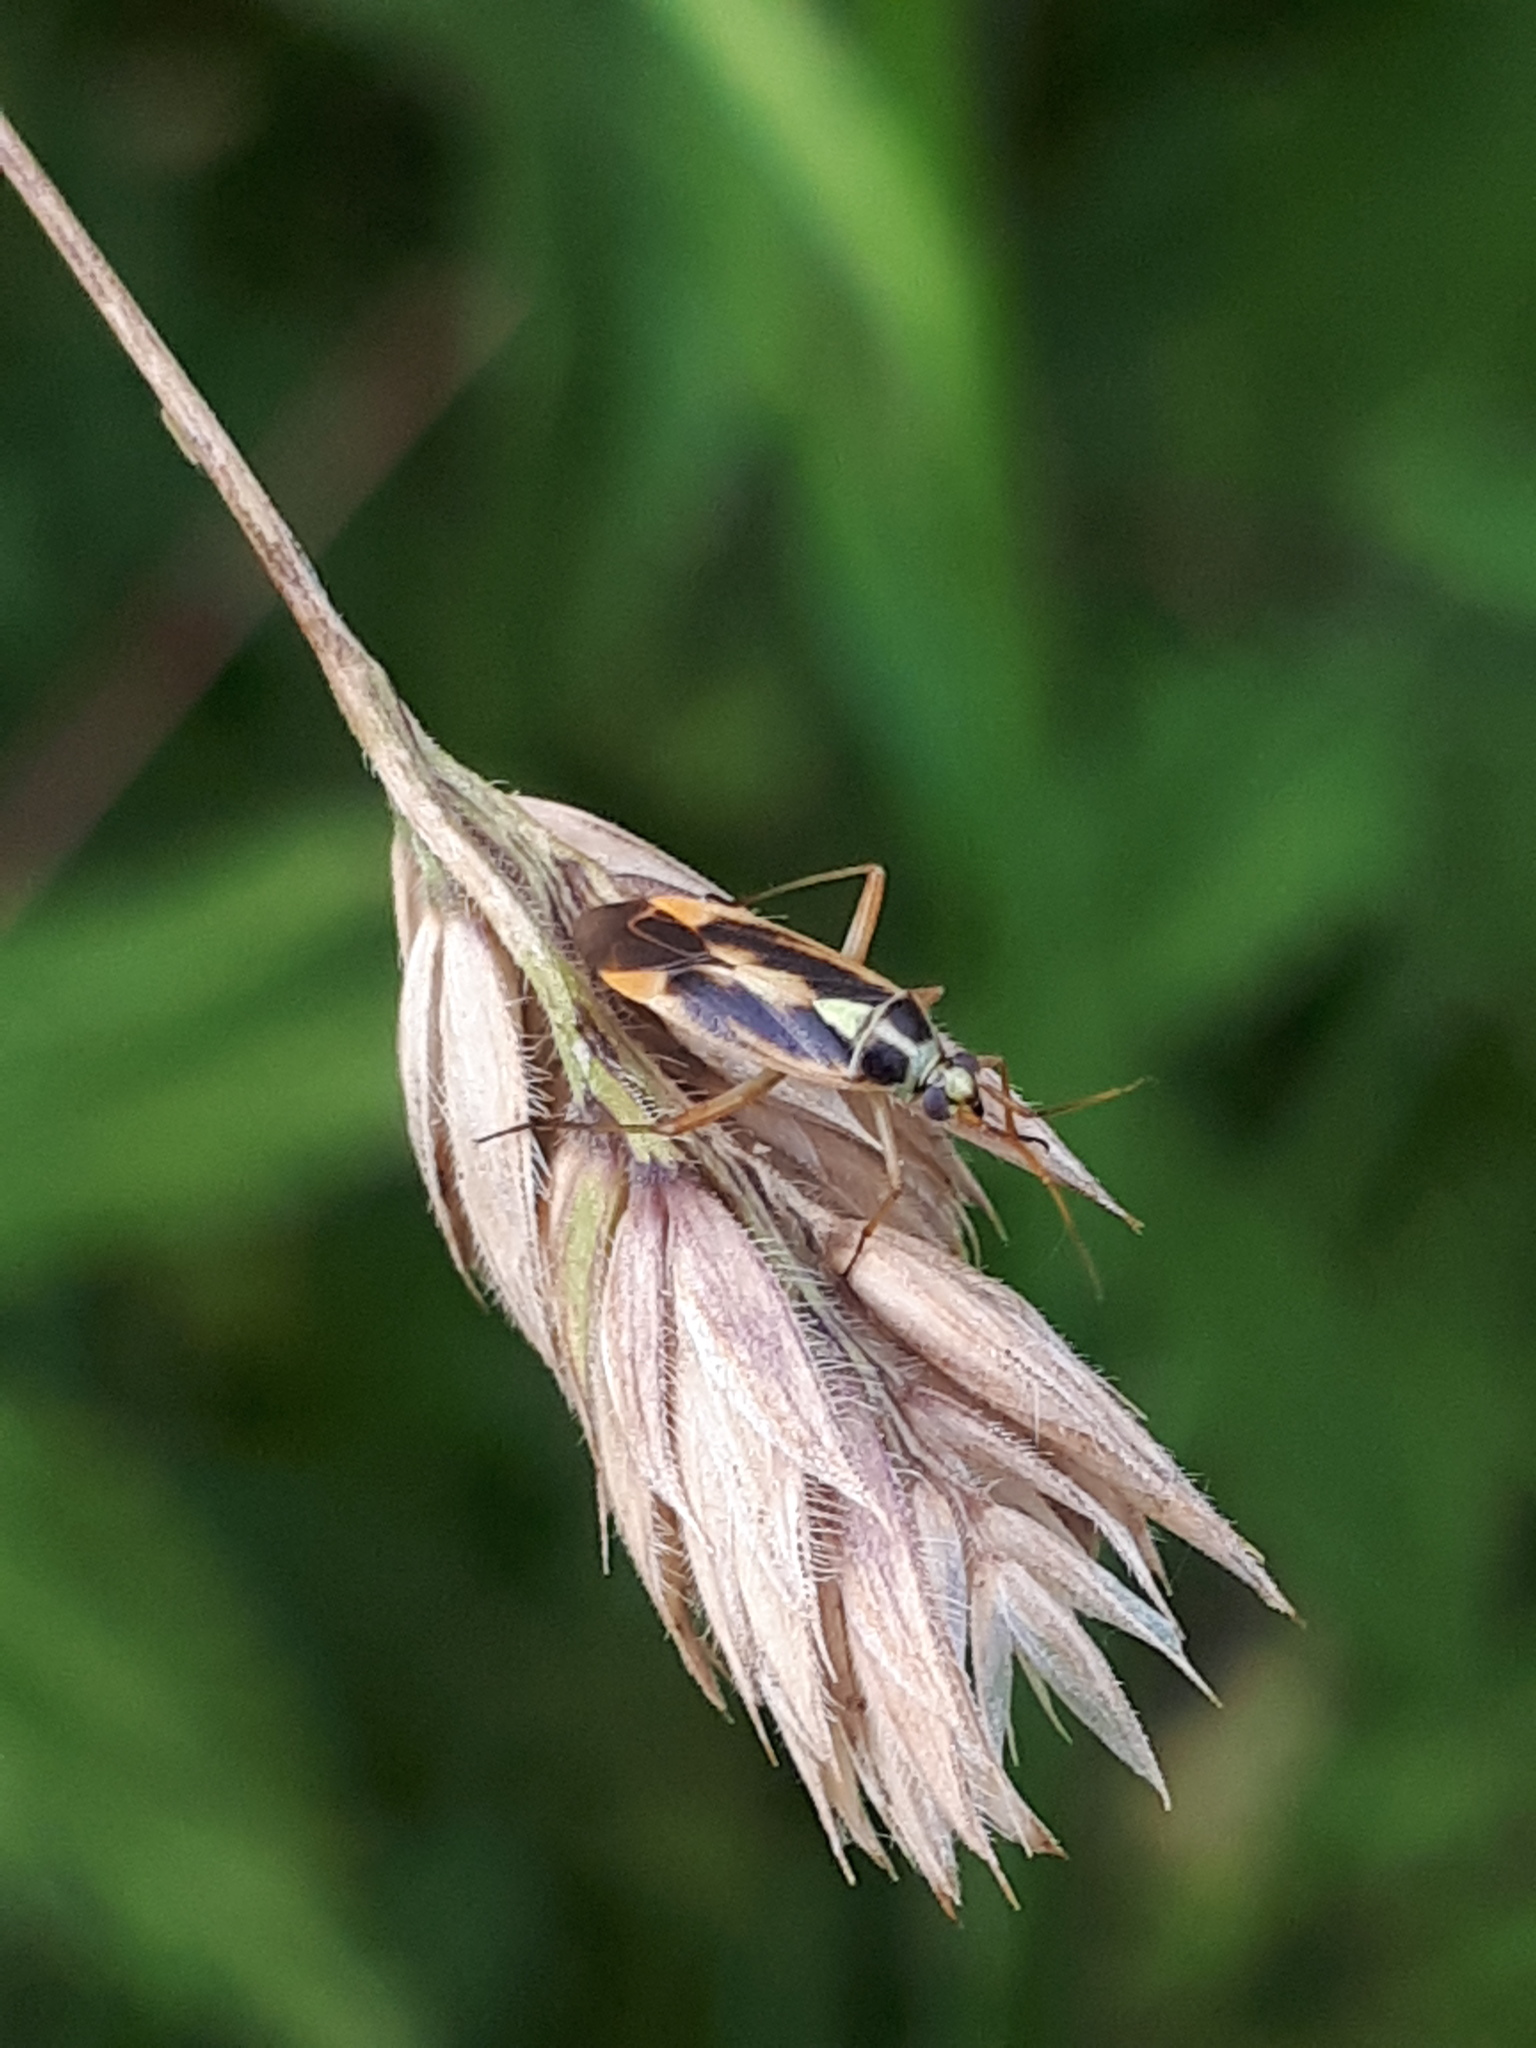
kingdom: Animalia
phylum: Arthropoda
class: Insecta
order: Hemiptera
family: Miridae
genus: Stenotus
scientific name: Stenotus binotatus
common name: Plant bug
